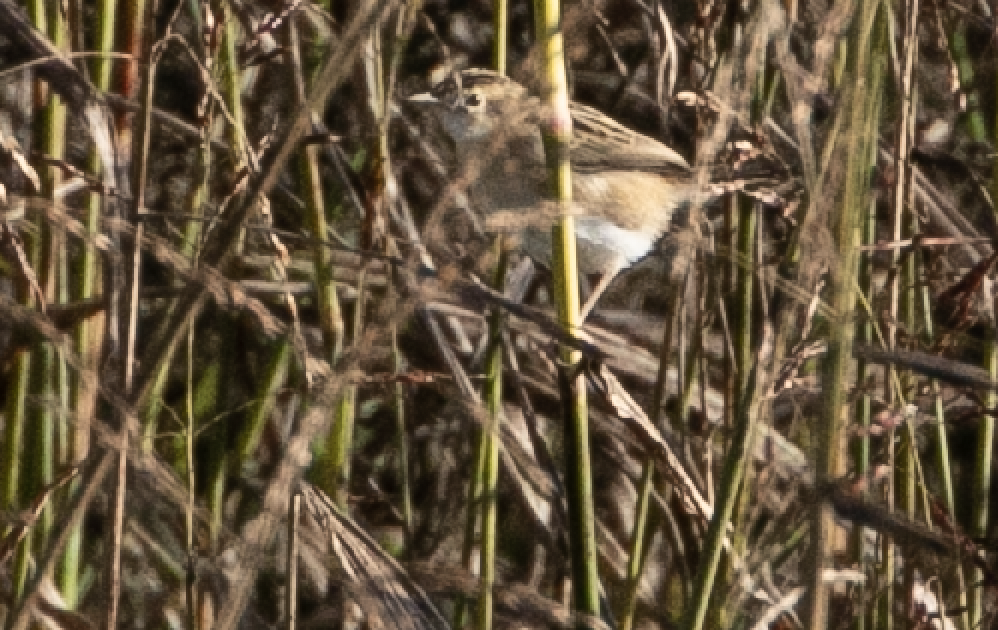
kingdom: Animalia
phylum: Chordata
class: Aves
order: Passeriformes
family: Cisticolidae
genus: Cisticola
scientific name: Cisticola juncidis
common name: Zitting cisticola
